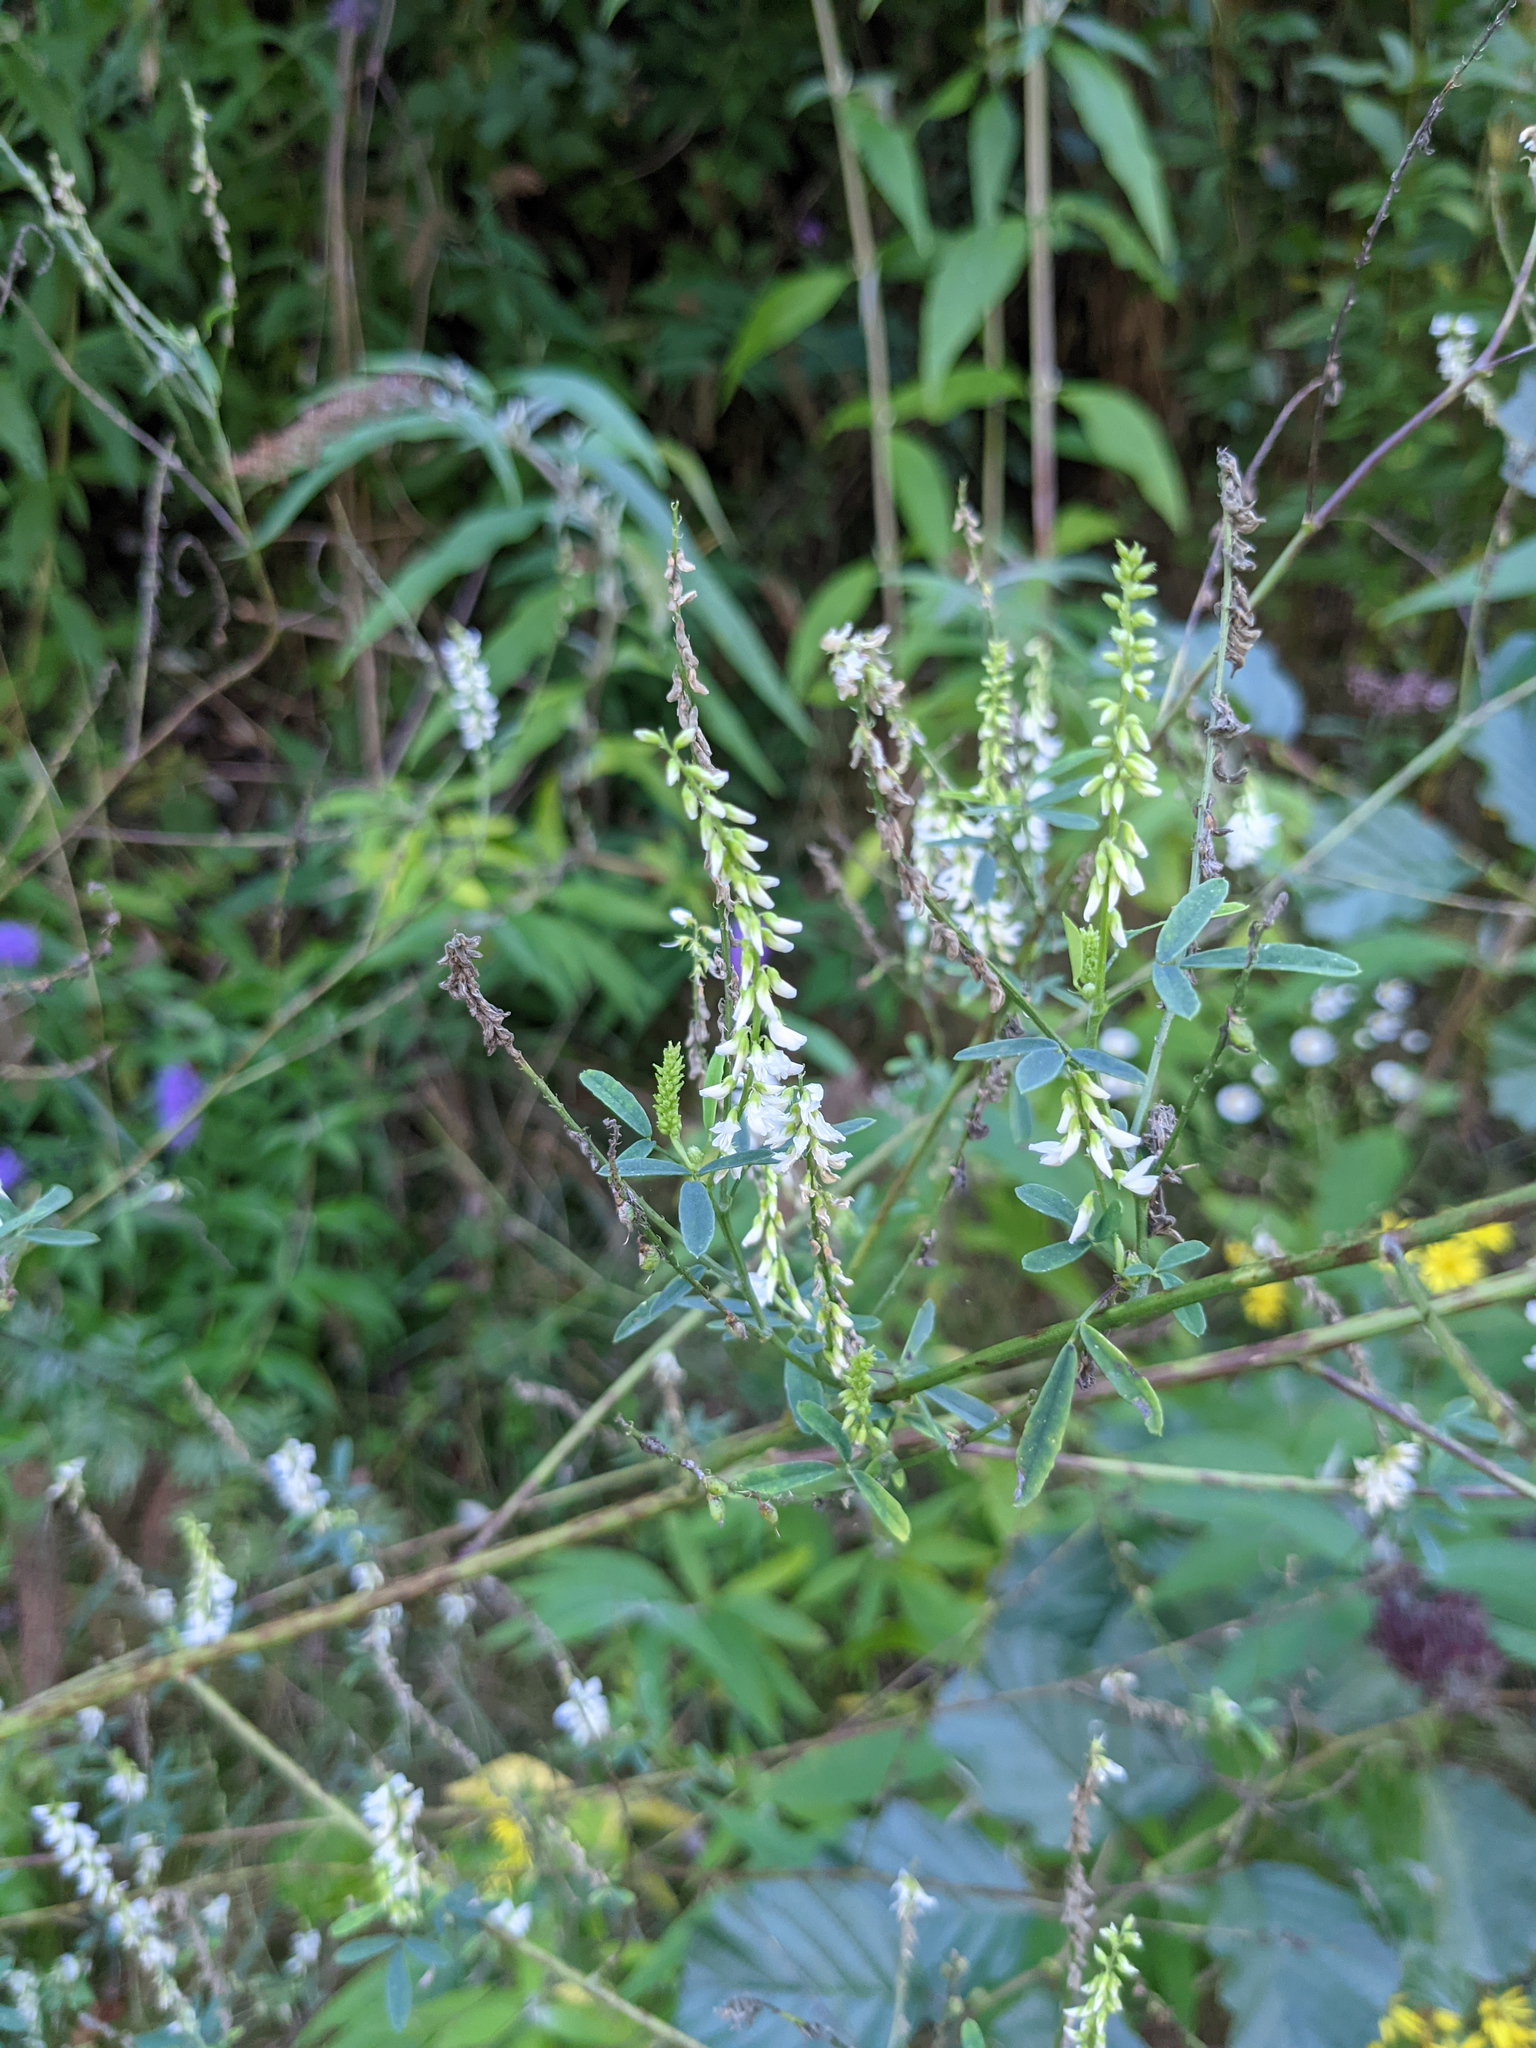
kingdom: Plantae
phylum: Tracheophyta
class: Magnoliopsida
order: Fabales
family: Fabaceae
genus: Melilotus
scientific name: Melilotus albus
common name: White melilot
